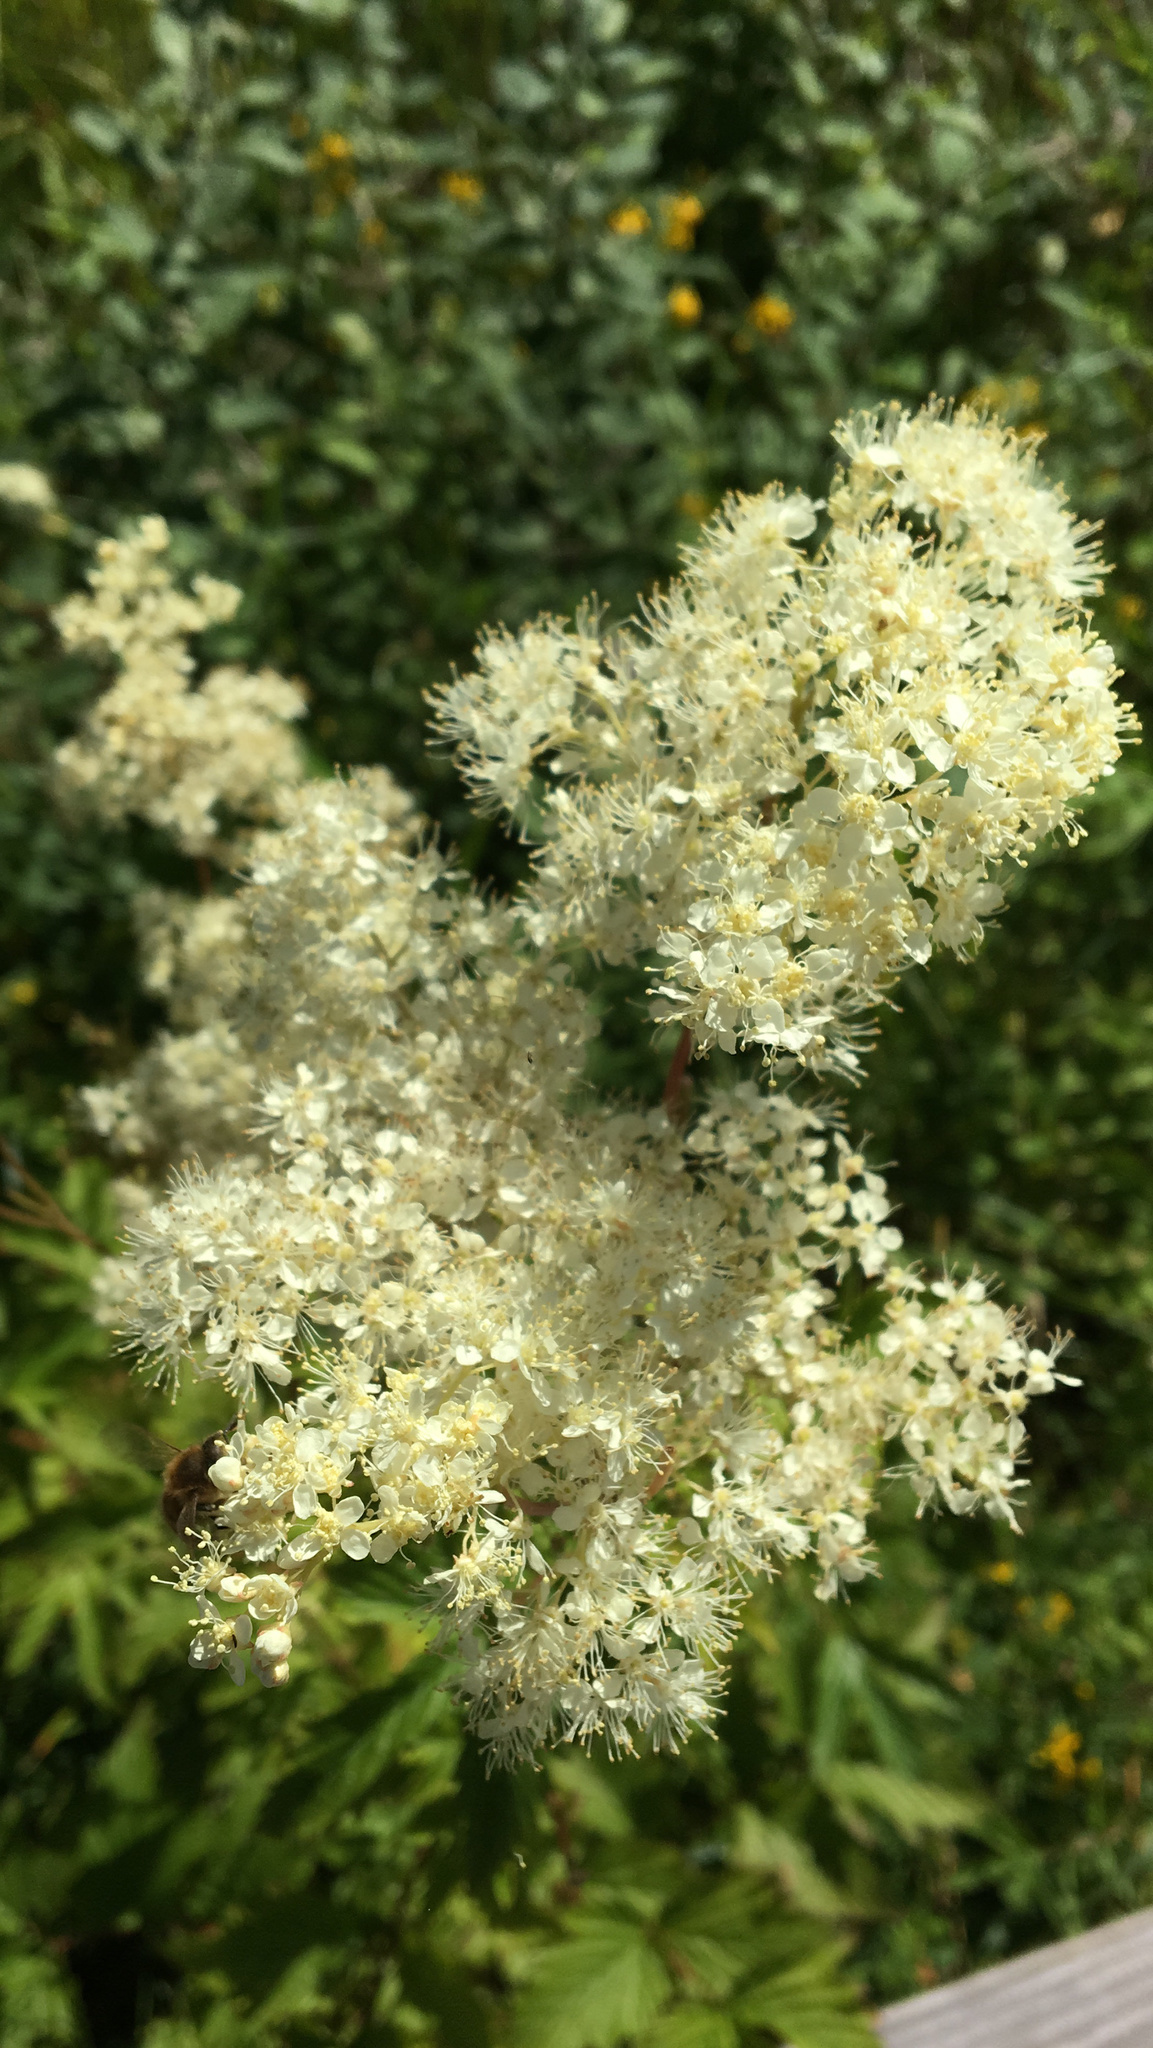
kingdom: Plantae
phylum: Tracheophyta
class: Magnoliopsida
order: Rosales
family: Rosaceae
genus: Filipendula
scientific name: Filipendula ulmaria
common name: Meadowsweet
